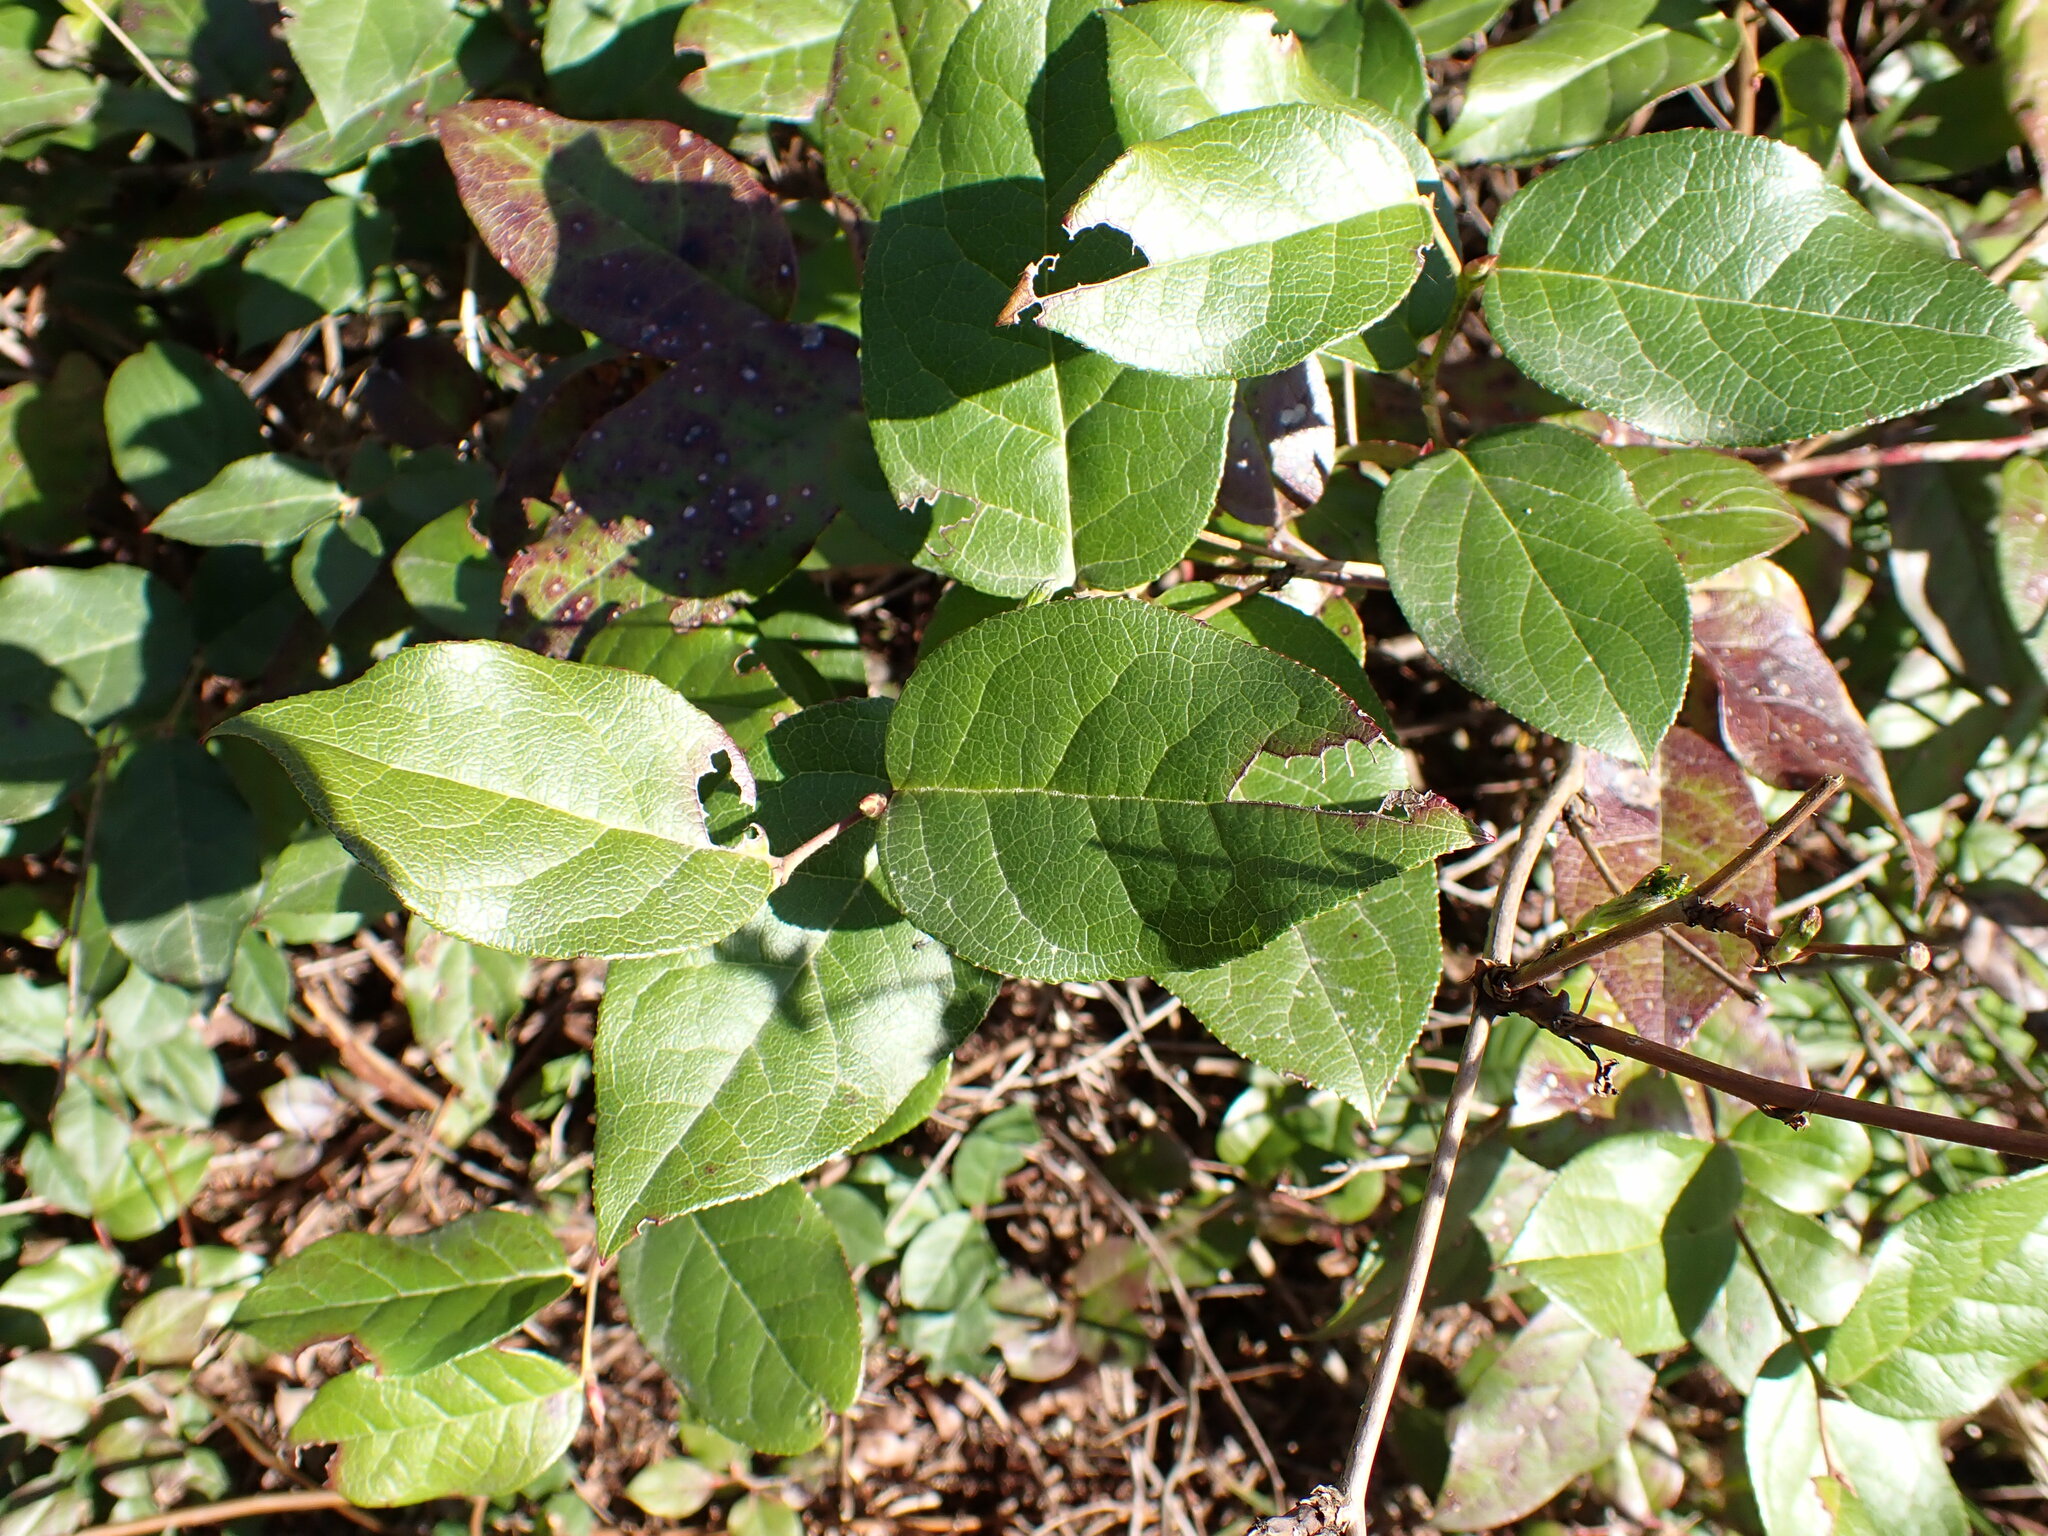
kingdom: Plantae
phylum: Tracheophyta
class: Magnoliopsida
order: Ericales
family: Ericaceae
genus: Gaultheria
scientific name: Gaultheria shallon
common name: Shallon
